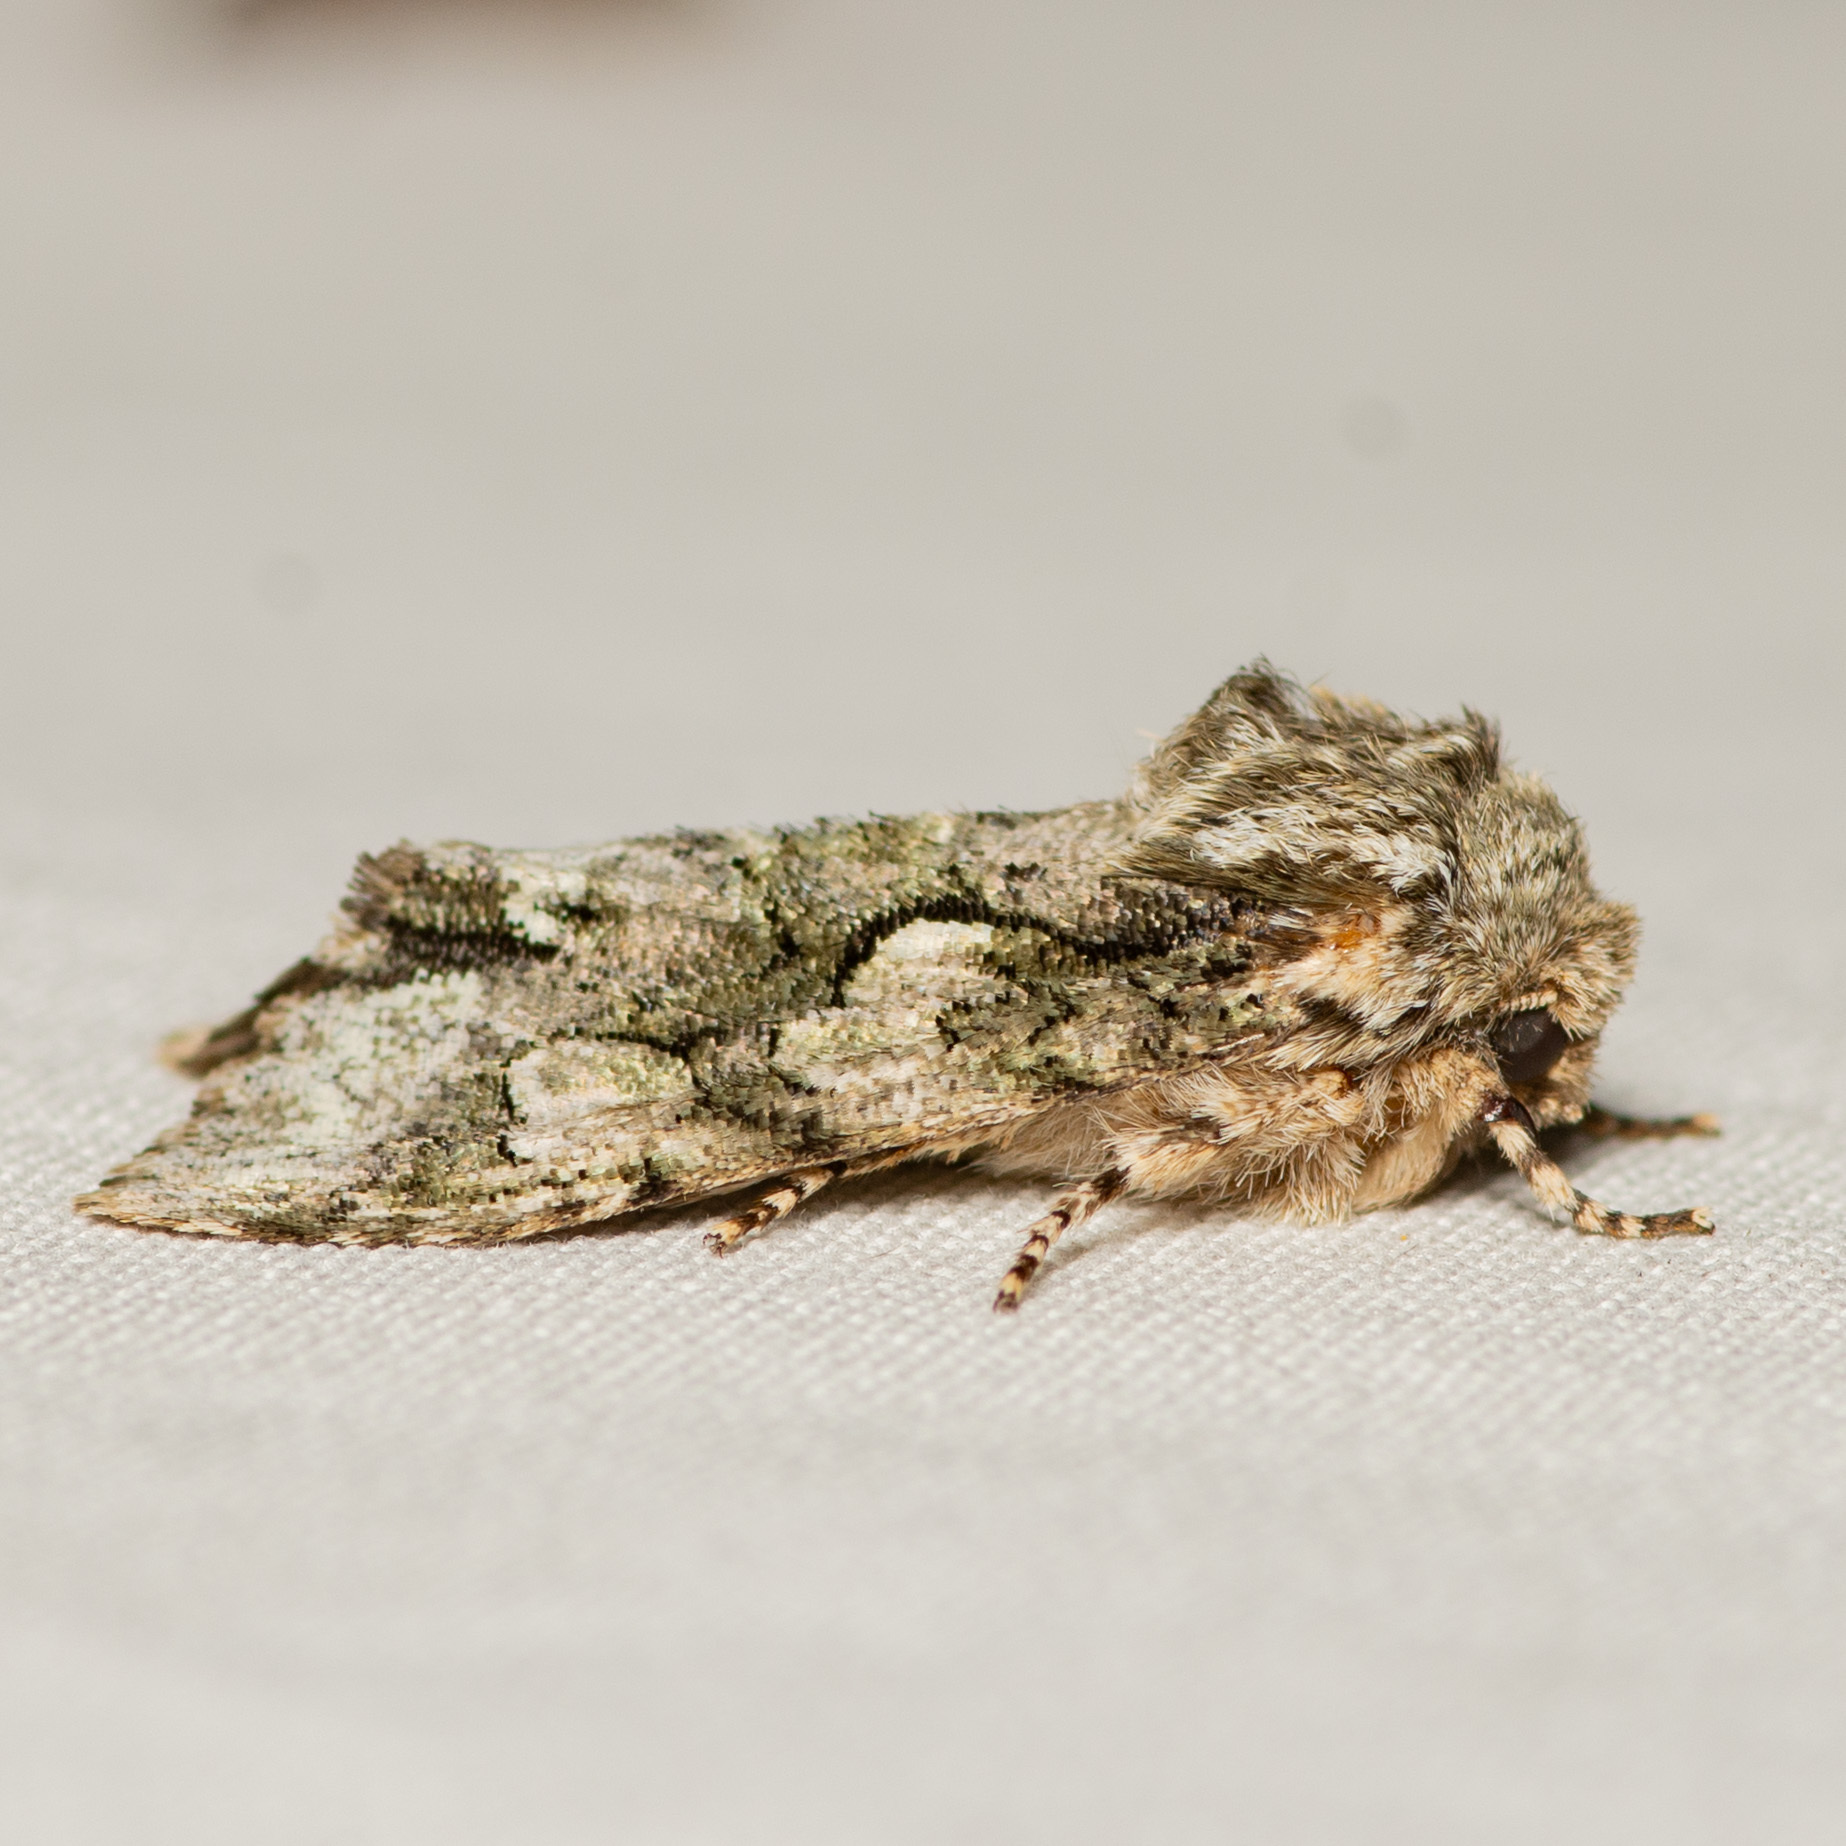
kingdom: Animalia
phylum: Arthropoda
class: Insecta
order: Lepidoptera
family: Noctuidae
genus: Psaphida
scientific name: Psaphida resumens
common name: Figure-eight sallow
